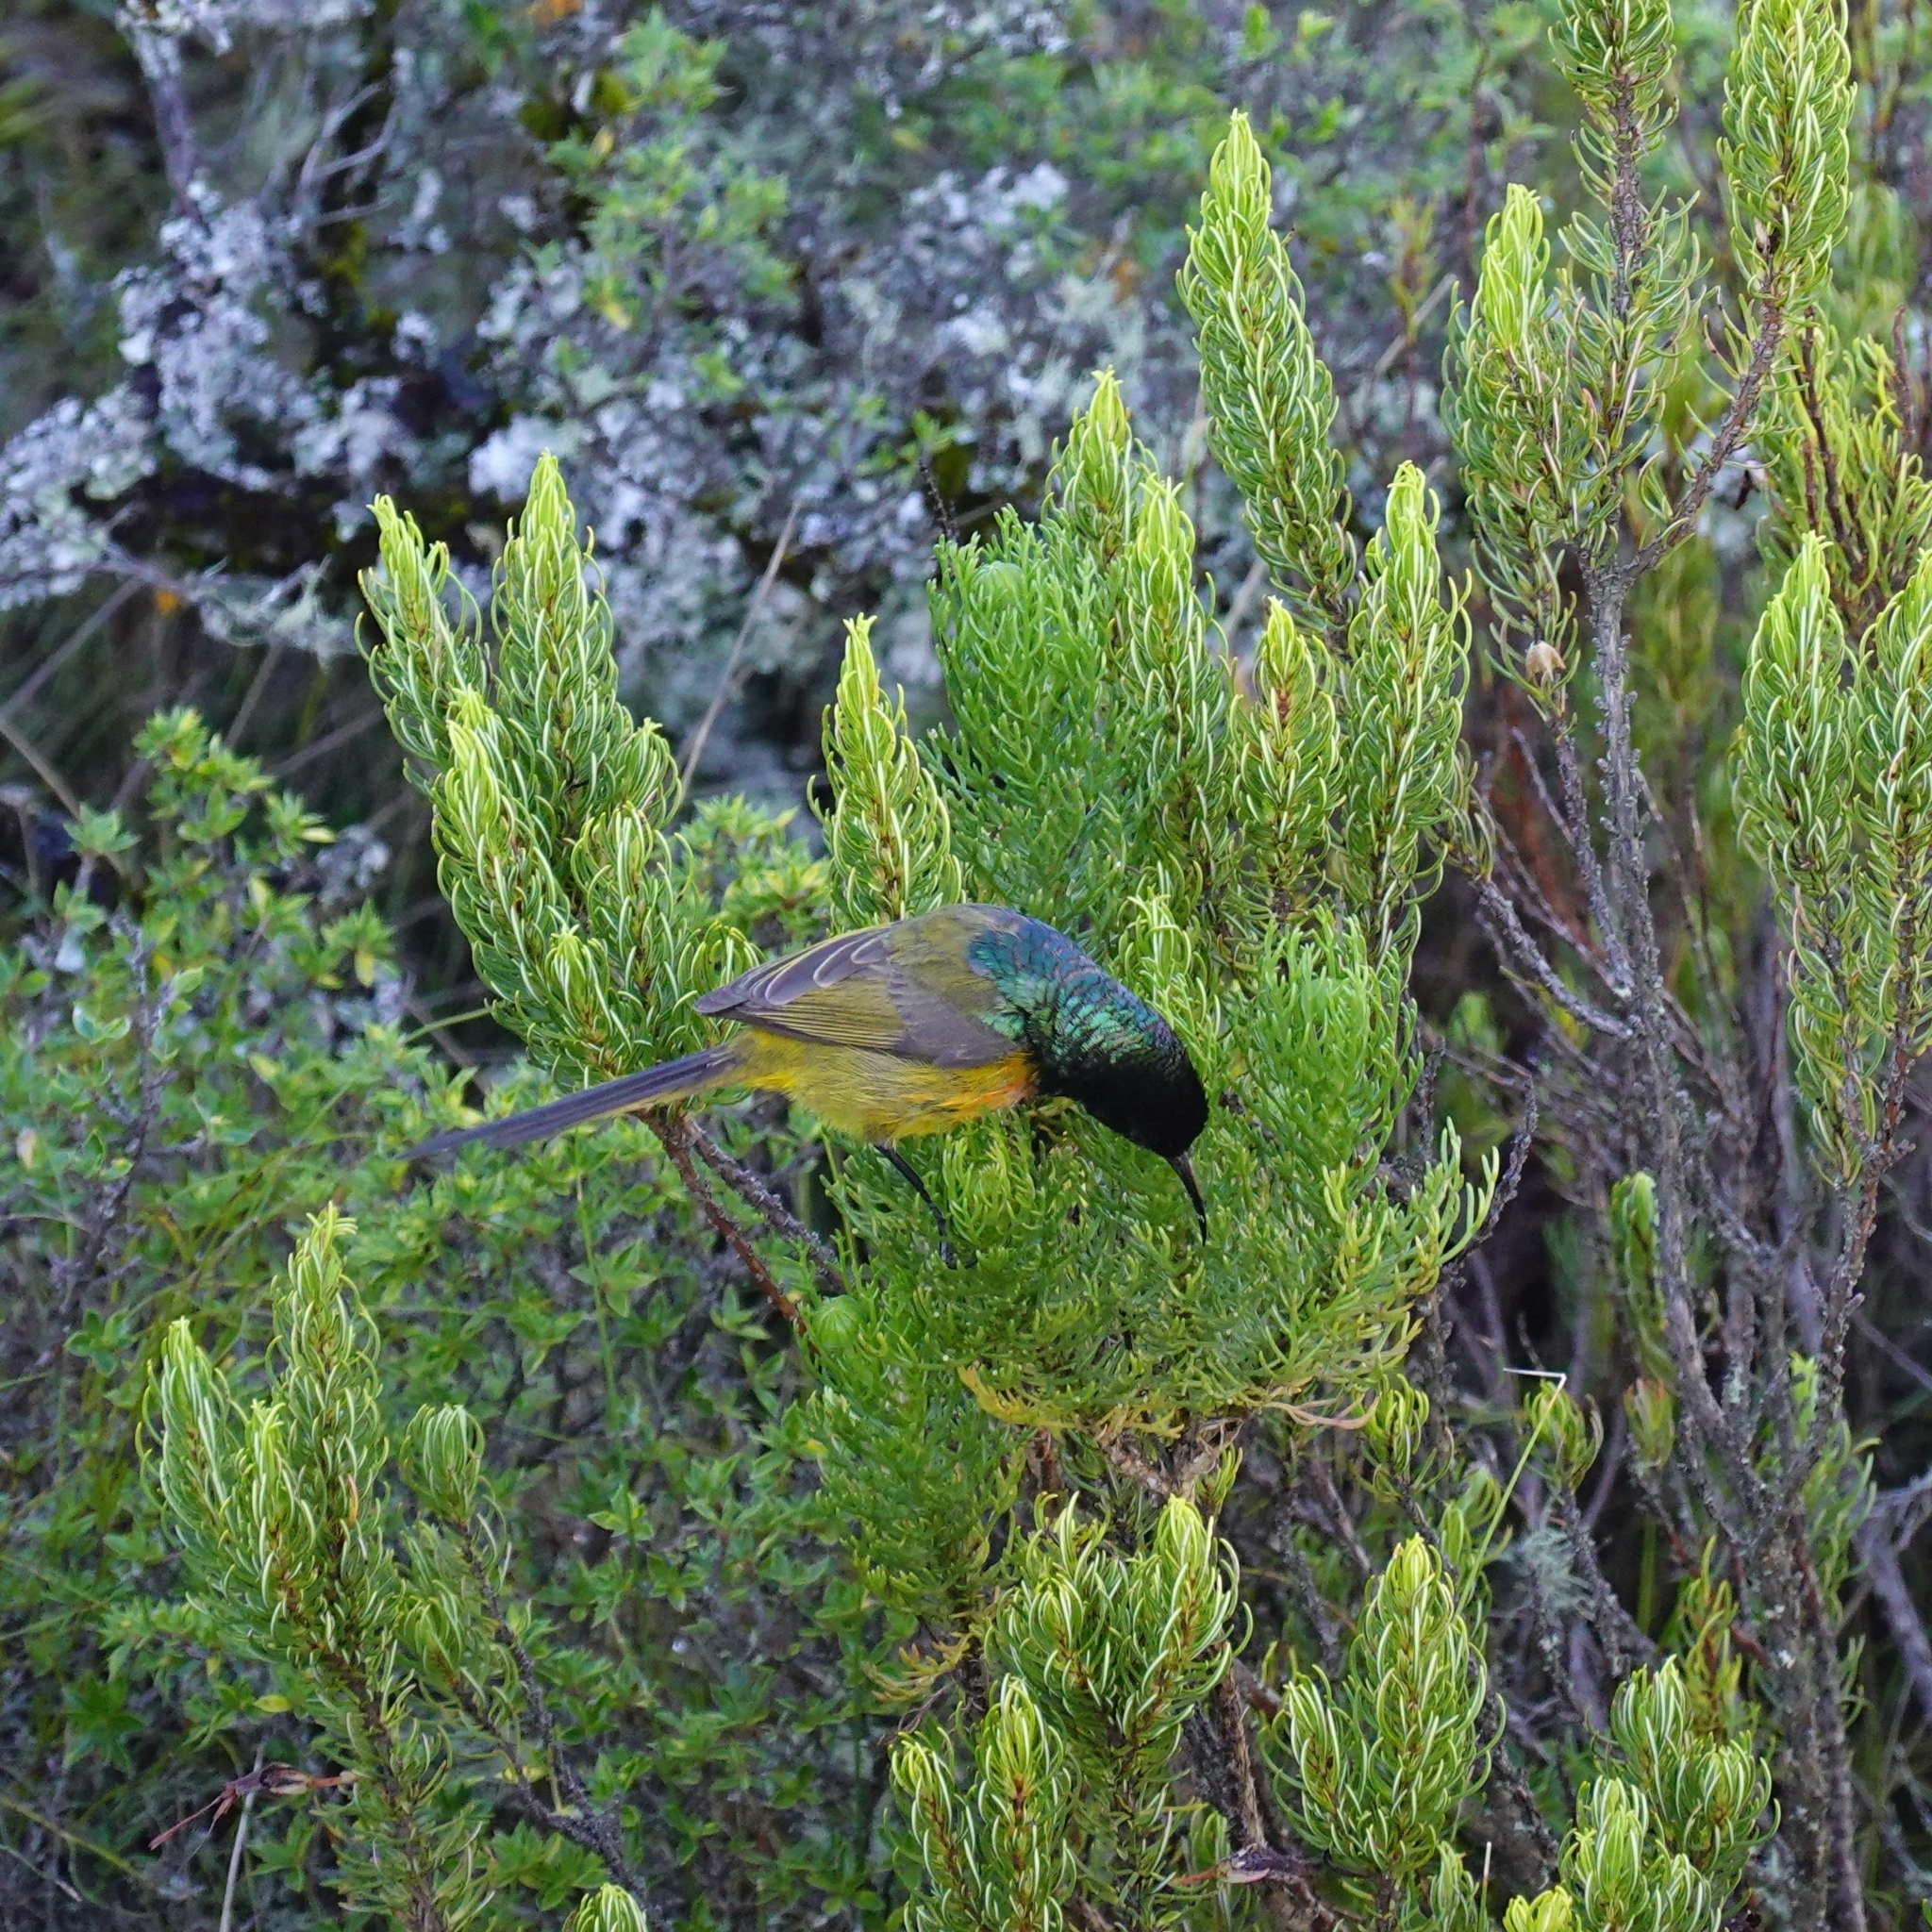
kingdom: Animalia
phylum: Chordata
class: Aves
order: Passeriformes
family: Nectariniidae
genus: Anthobaphes
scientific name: Anthobaphes violacea
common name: Orange-breasted sunbird
